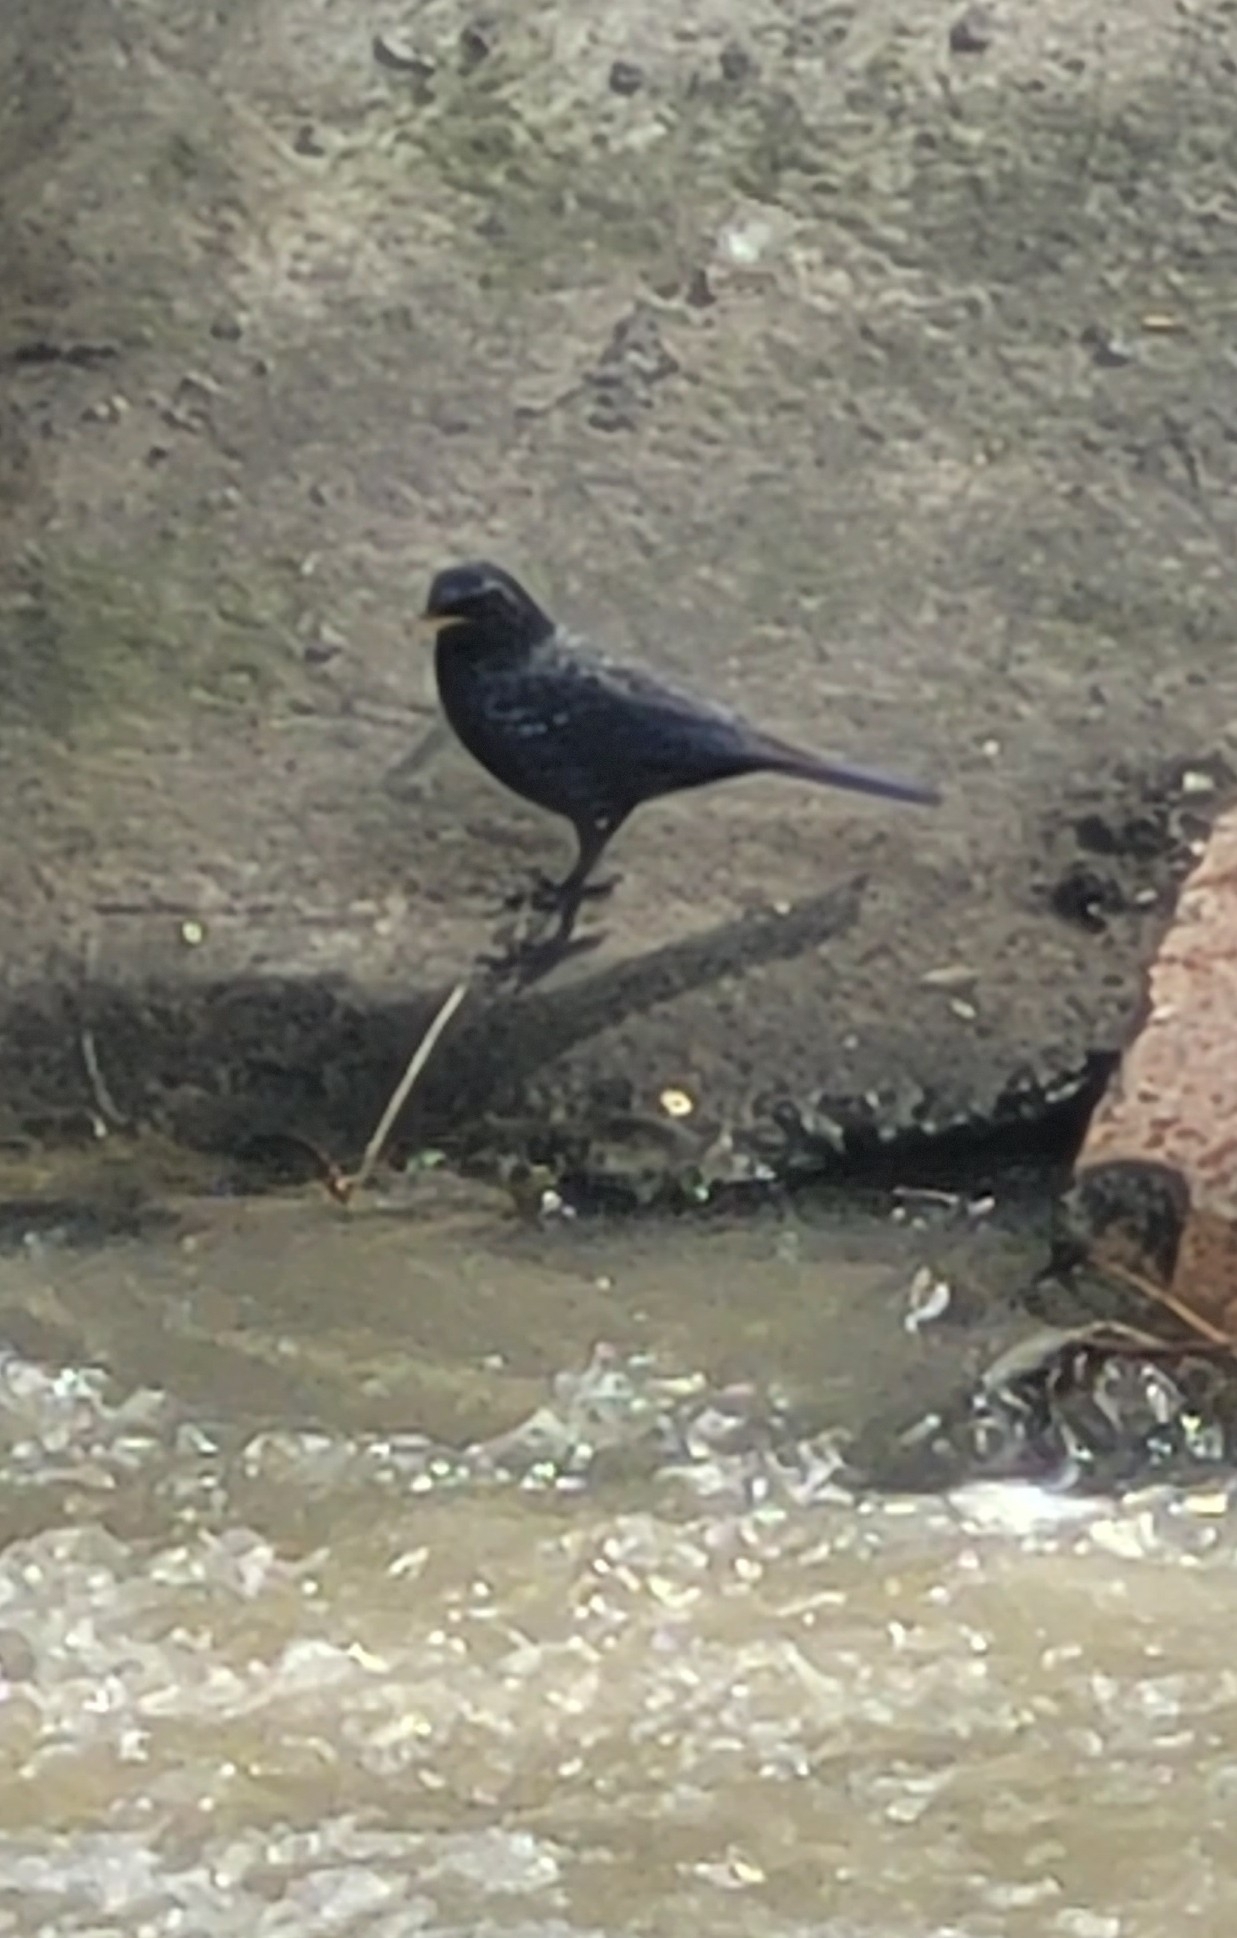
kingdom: Animalia
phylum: Chordata
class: Aves
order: Passeriformes
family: Muscicapidae
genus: Myophonus
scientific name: Myophonus caeruleus
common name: Blue whistling-thrush
